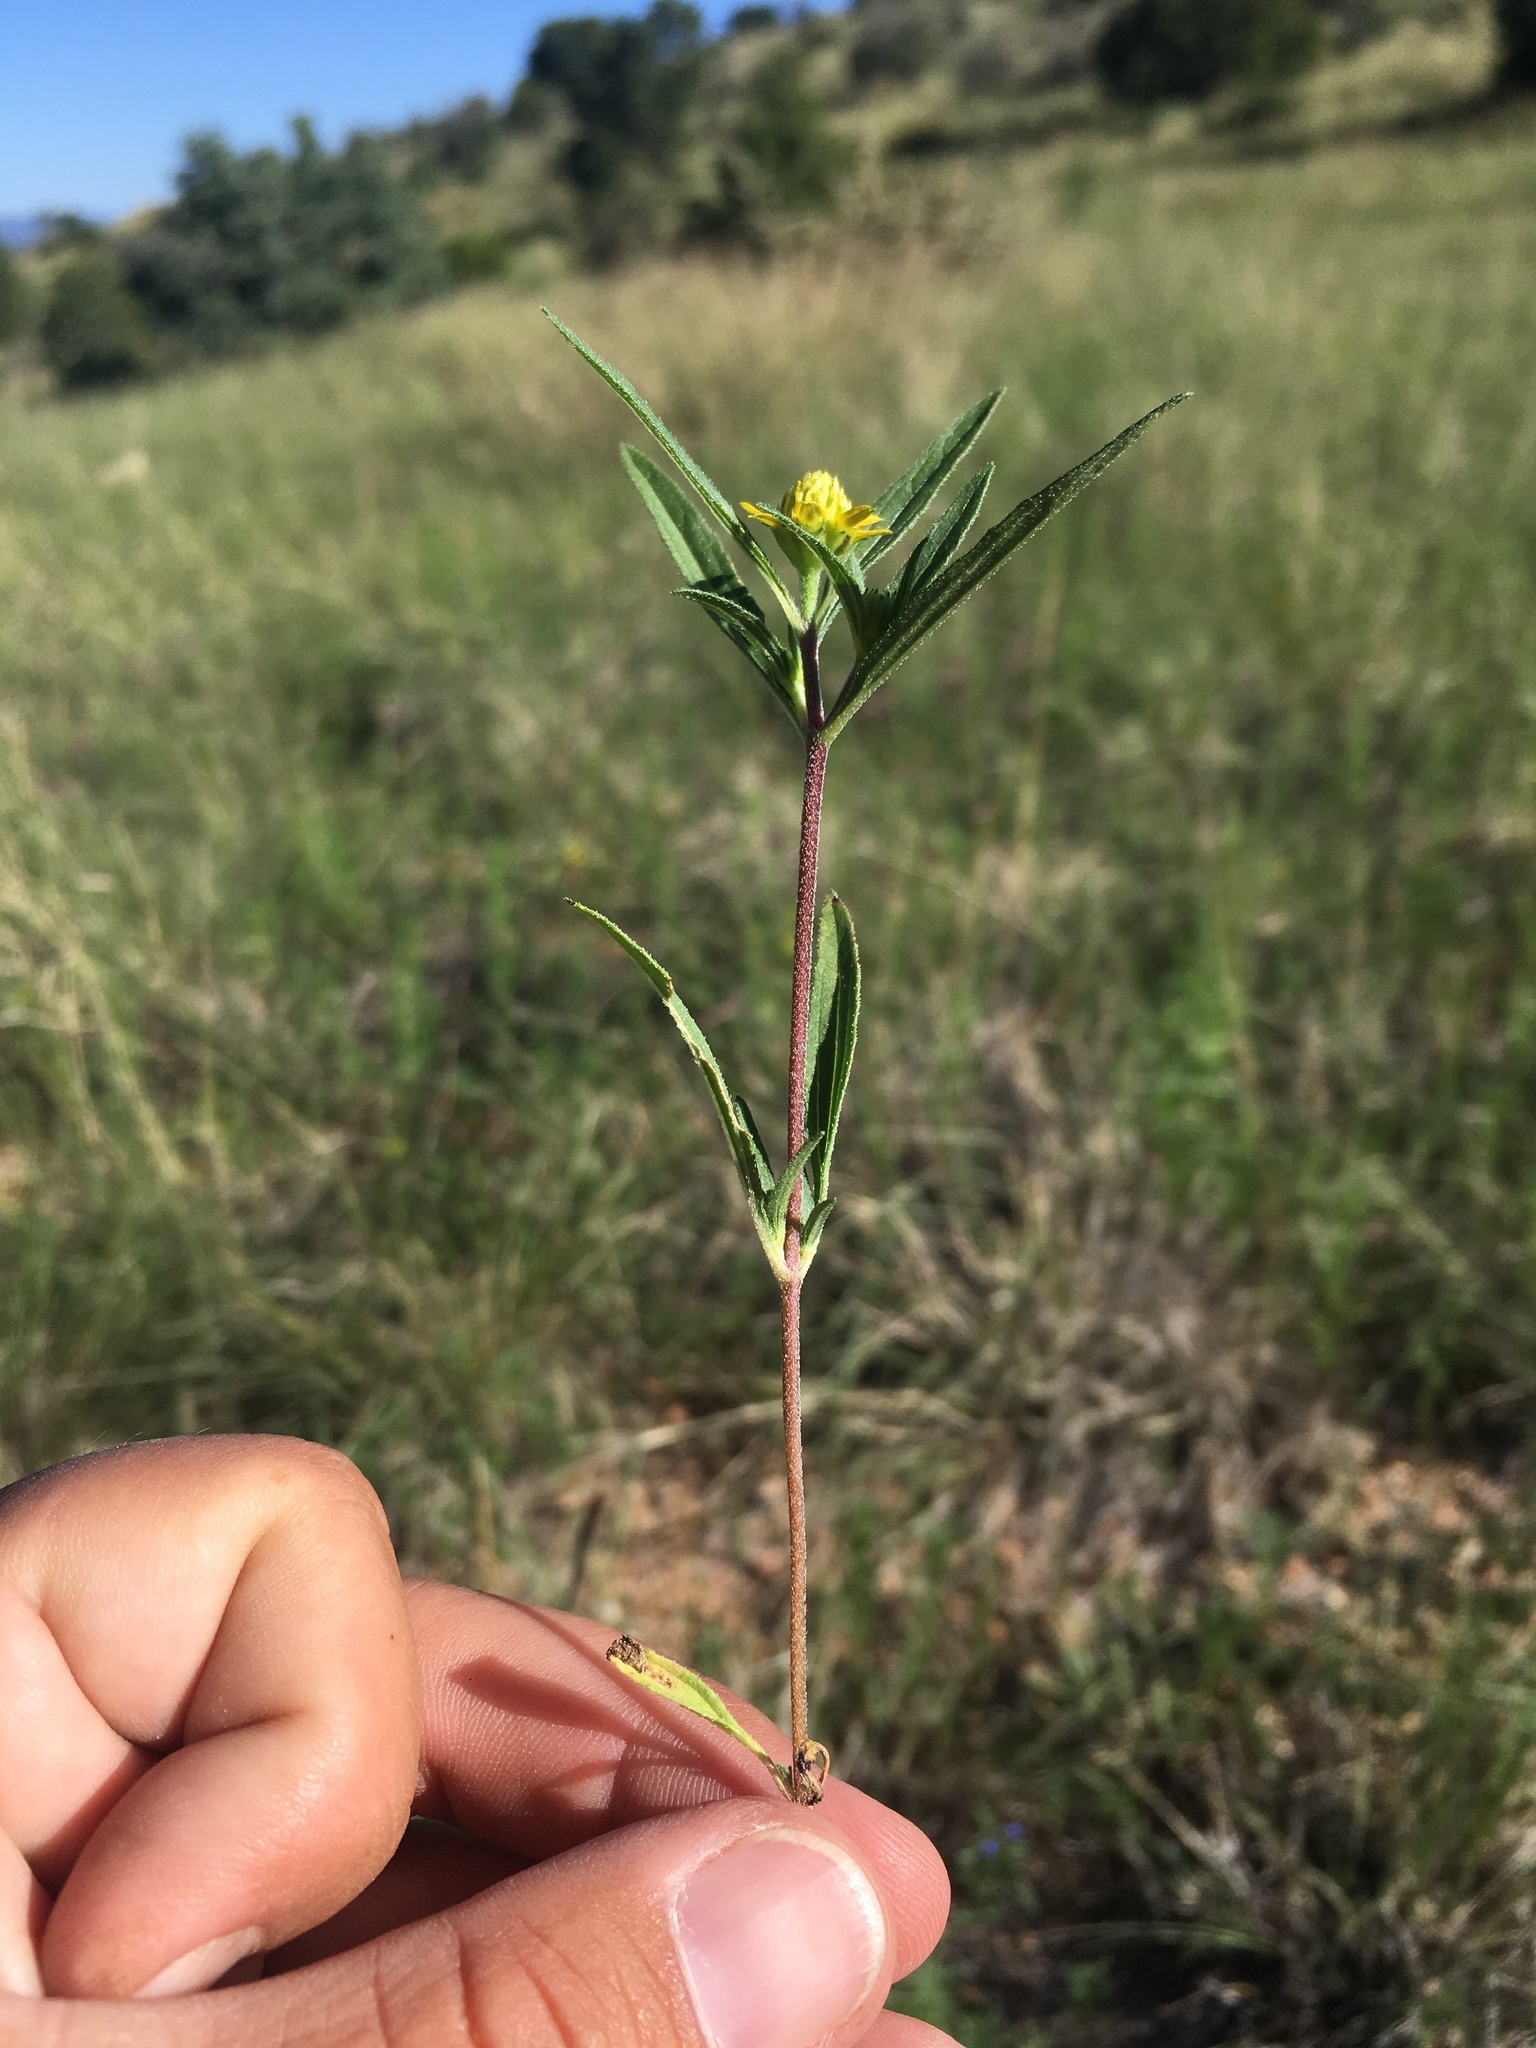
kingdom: Plantae
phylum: Tracheophyta
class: Magnoliopsida
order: Asterales
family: Asteraceae
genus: Sanvitalia
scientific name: Sanvitalia abertii
